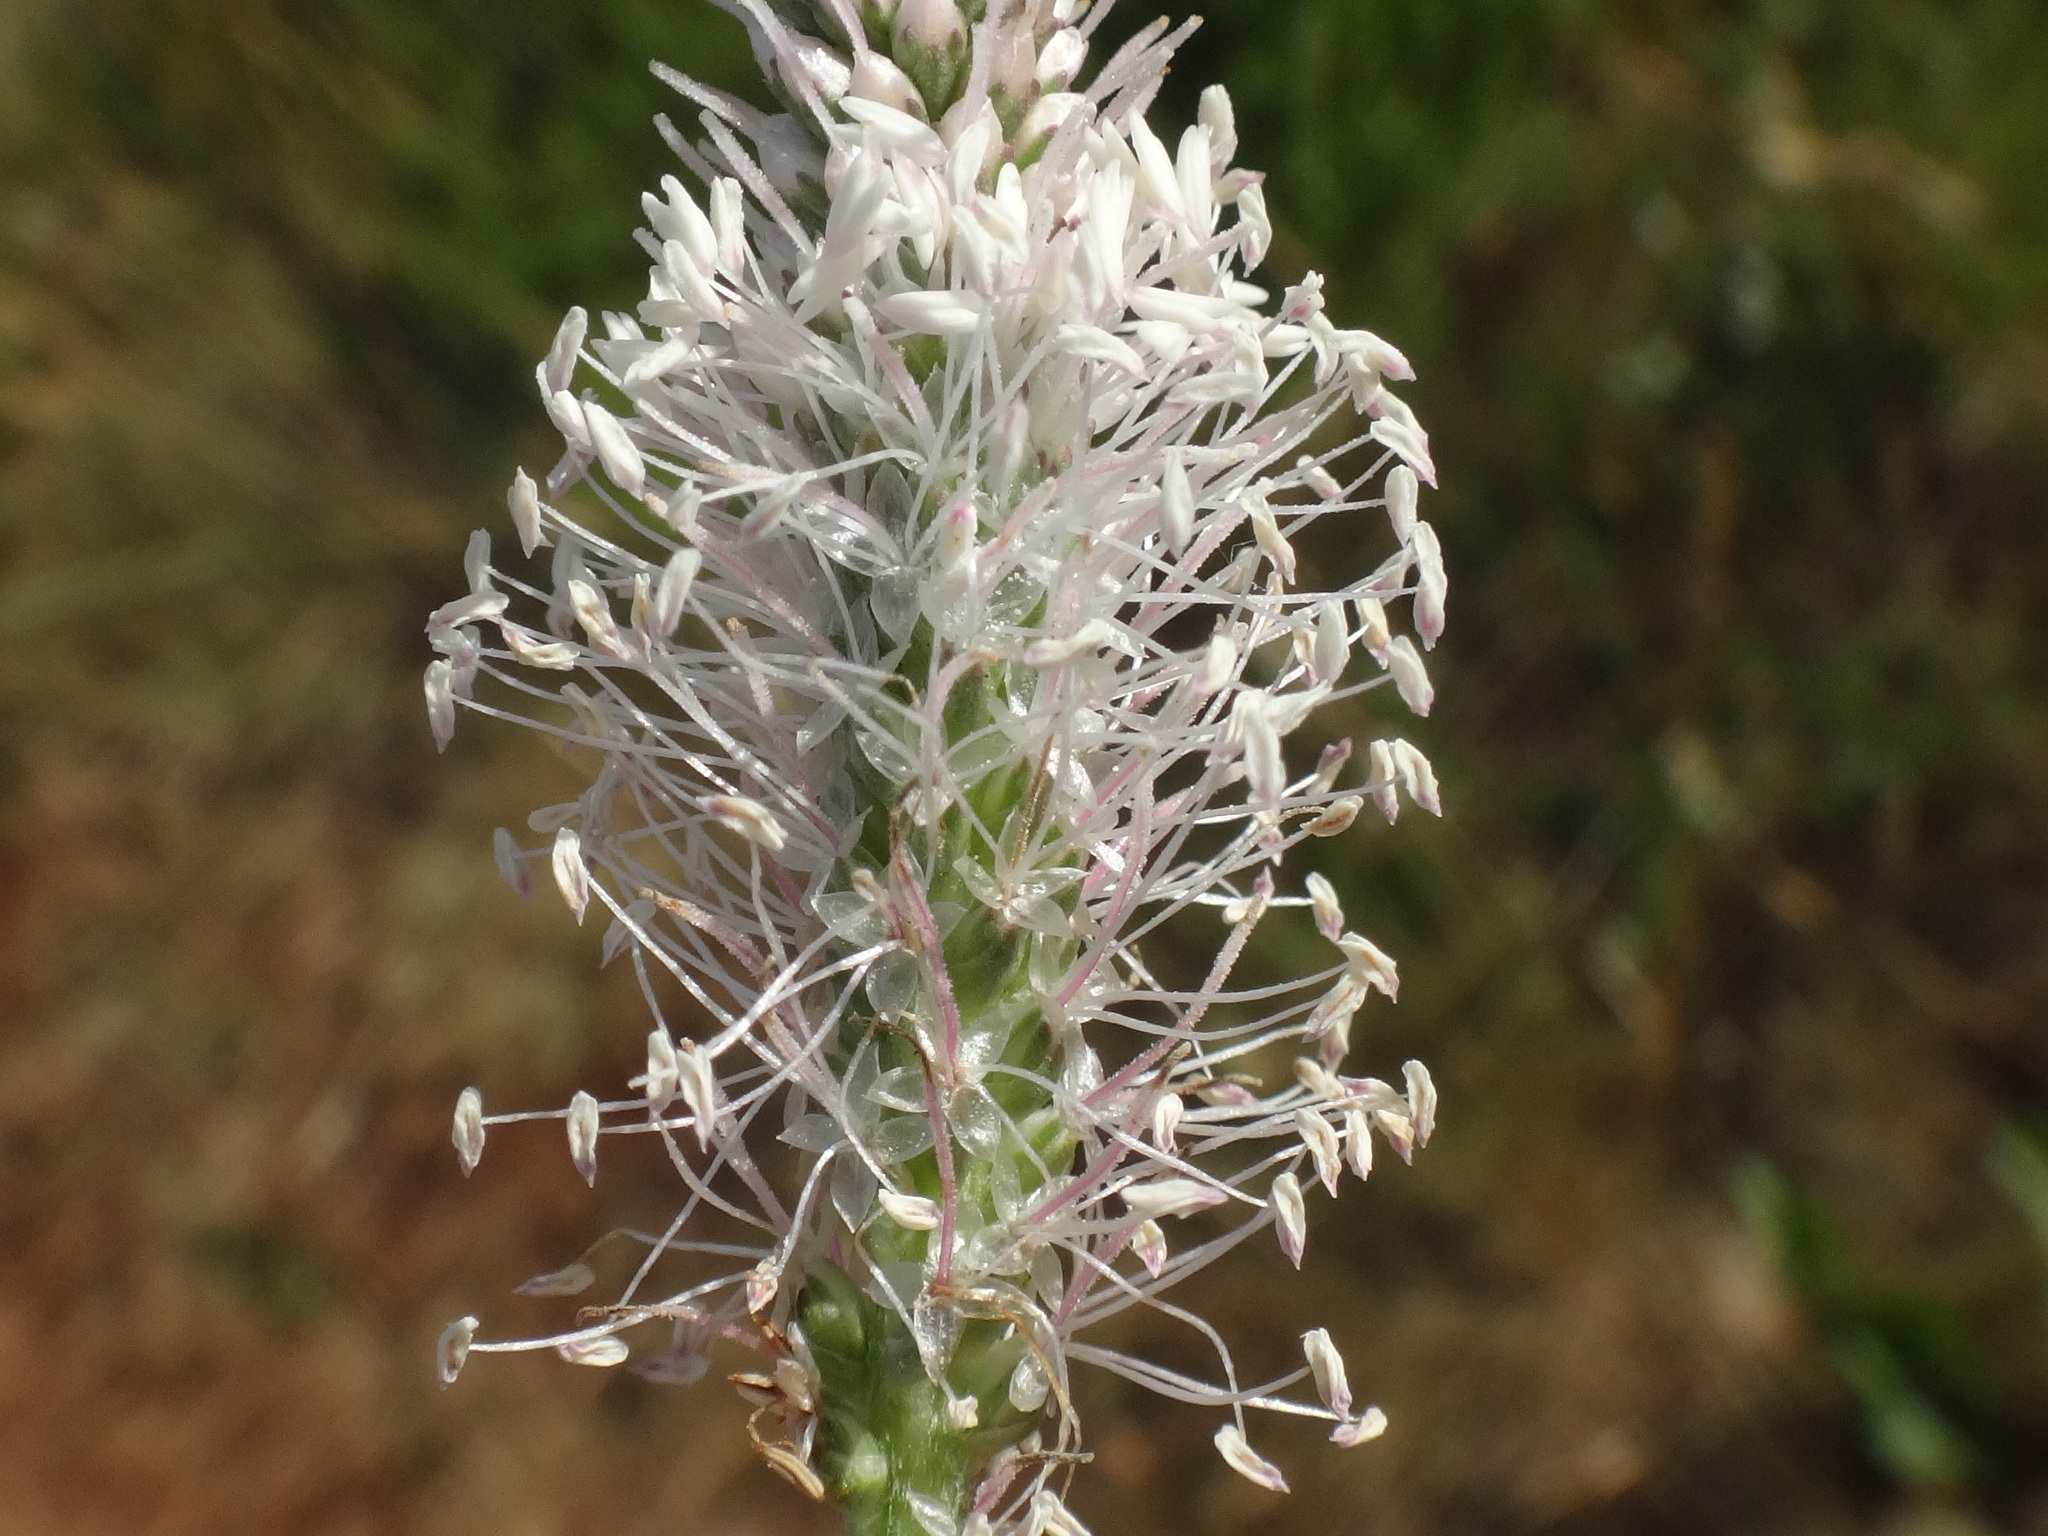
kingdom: Plantae
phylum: Tracheophyta
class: Magnoliopsida
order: Lamiales
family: Plantaginaceae
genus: Plantago
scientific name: Plantago media
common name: Hoary plantain
